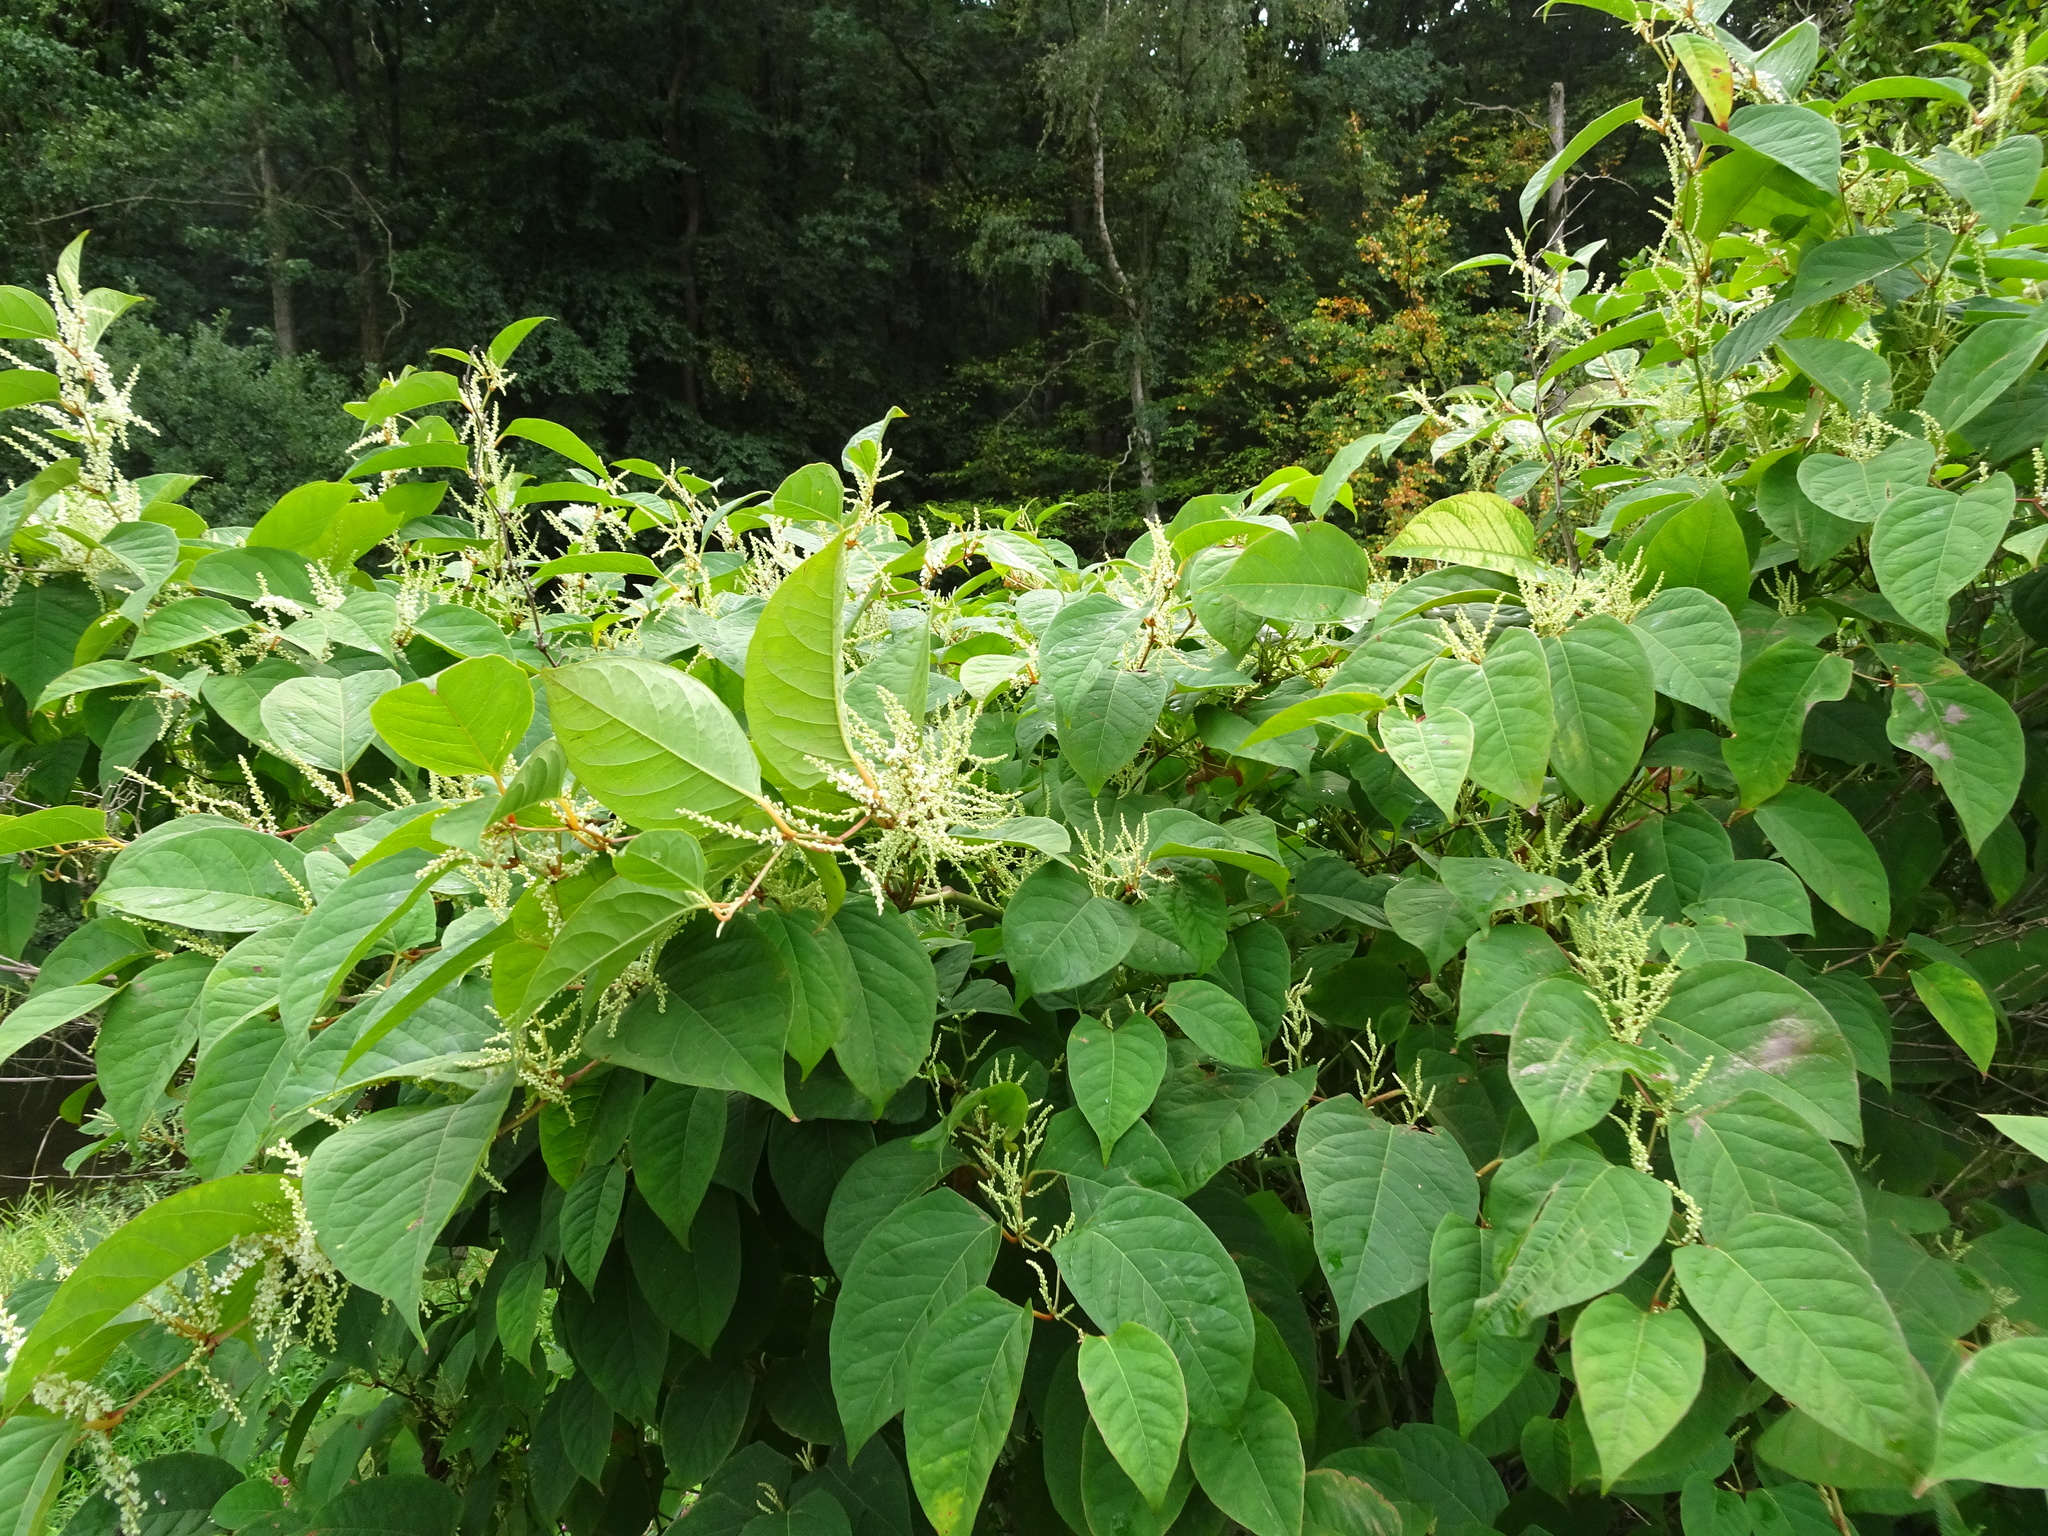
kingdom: Plantae
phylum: Tracheophyta
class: Magnoliopsida
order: Caryophyllales
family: Polygonaceae
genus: Reynoutria
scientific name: Reynoutria japonica
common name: Japanese knotweed
